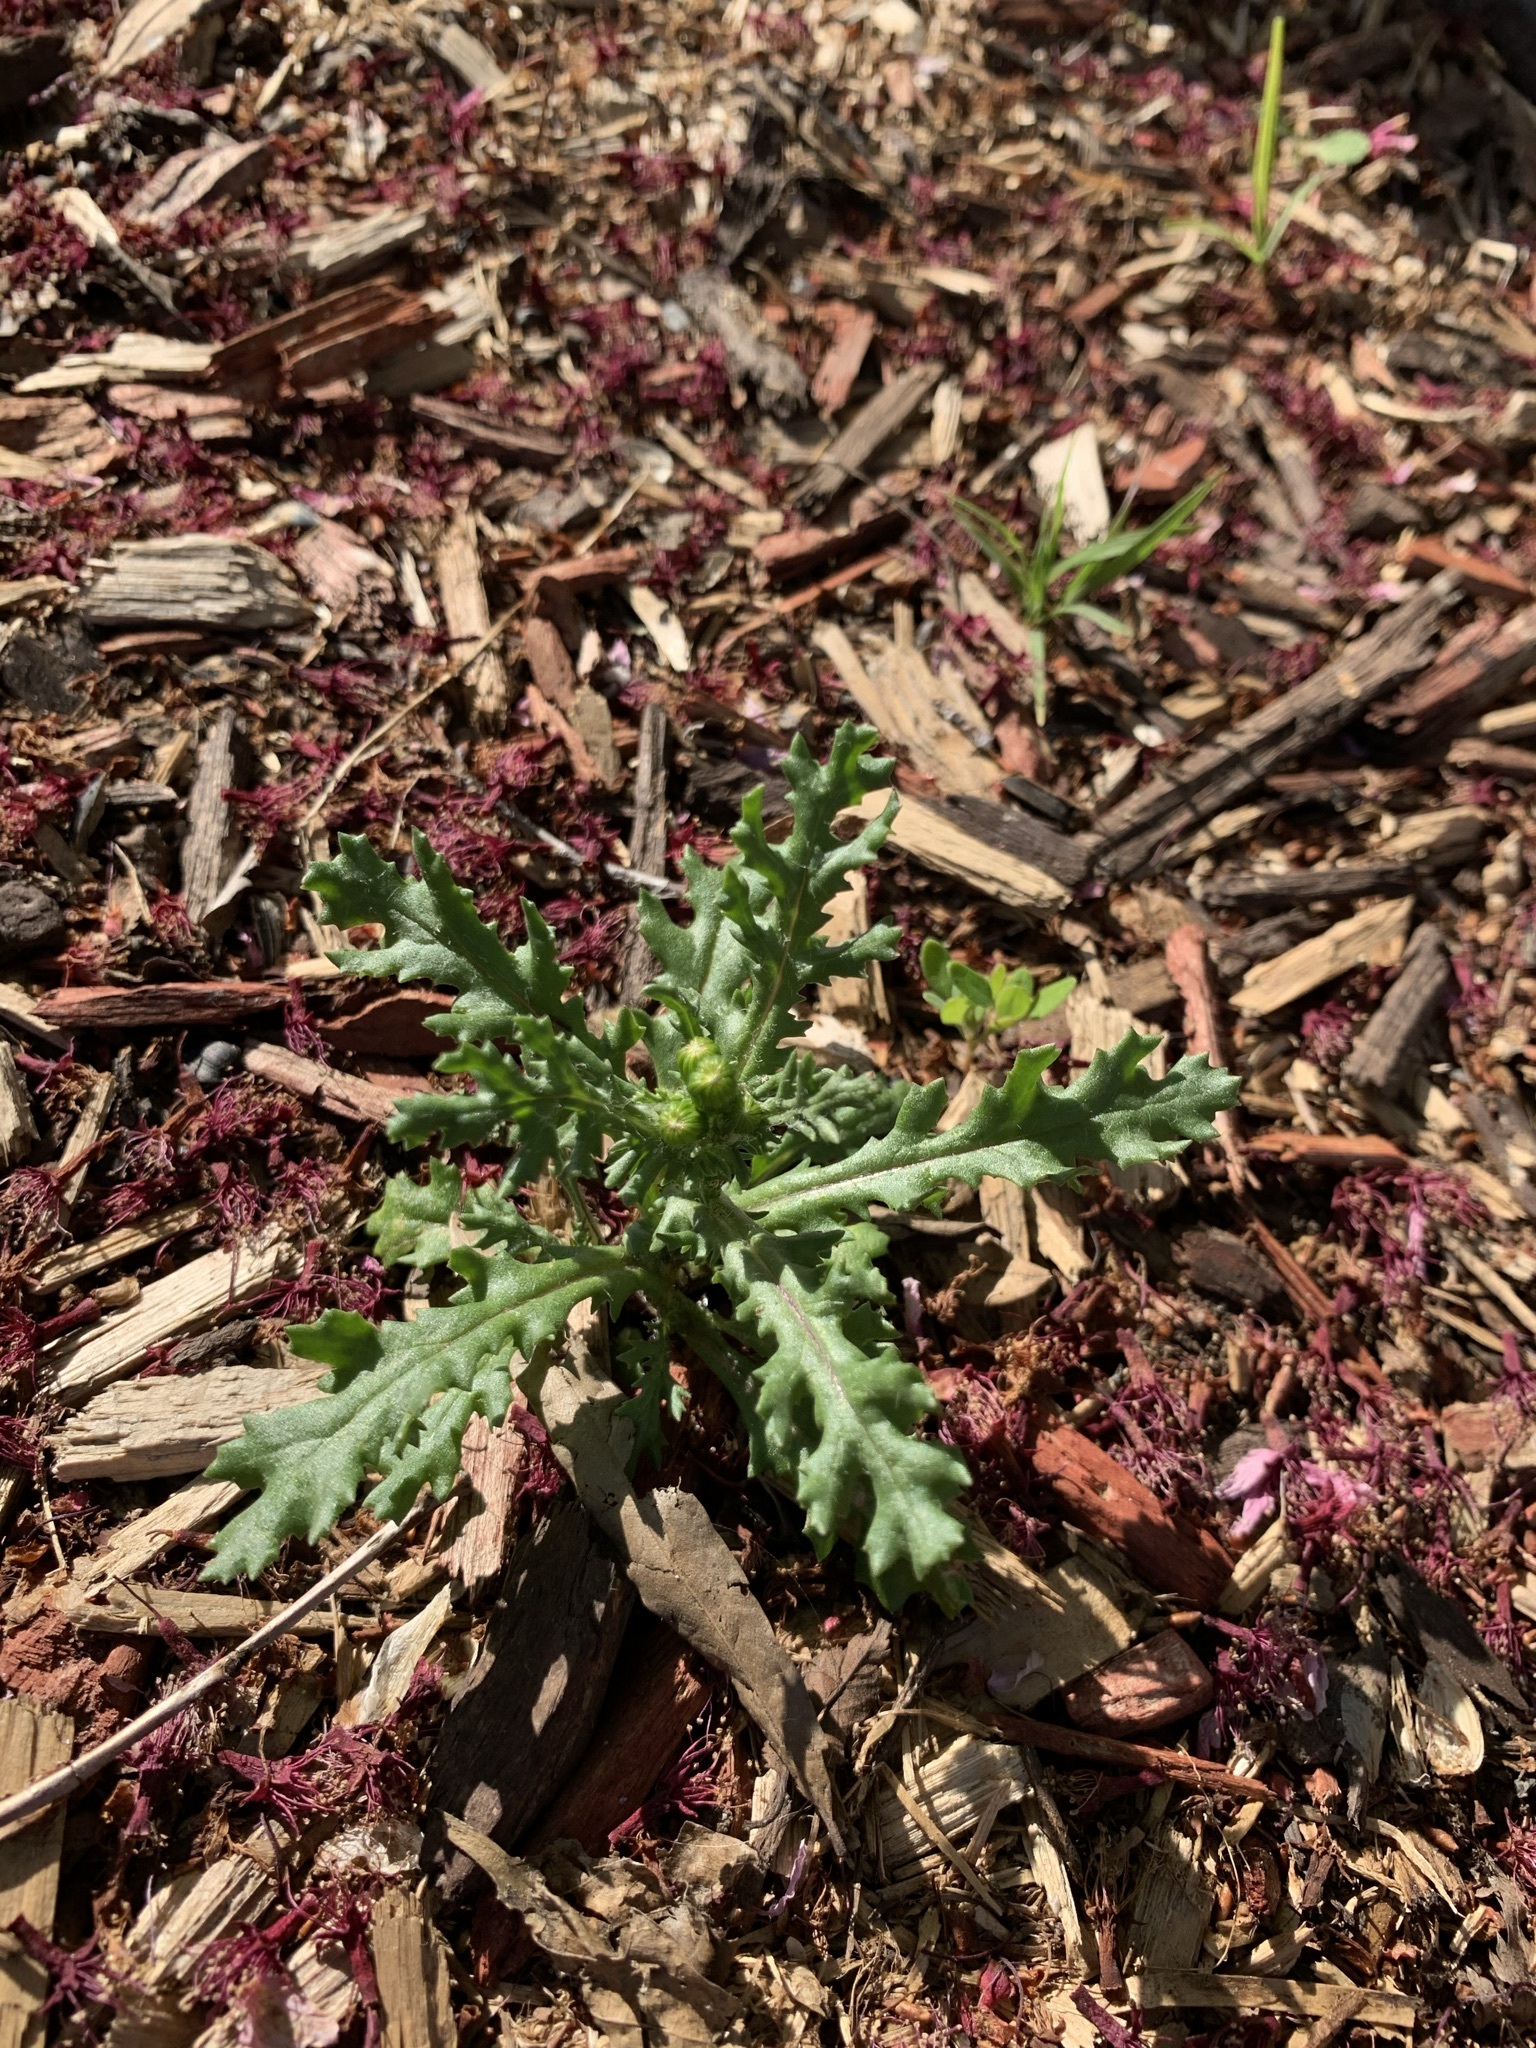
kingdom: Plantae
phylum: Tracheophyta
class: Magnoliopsida
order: Asterales
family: Asteraceae
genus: Senecio
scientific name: Senecio vulgaris
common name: Old-man-in-the-spring
